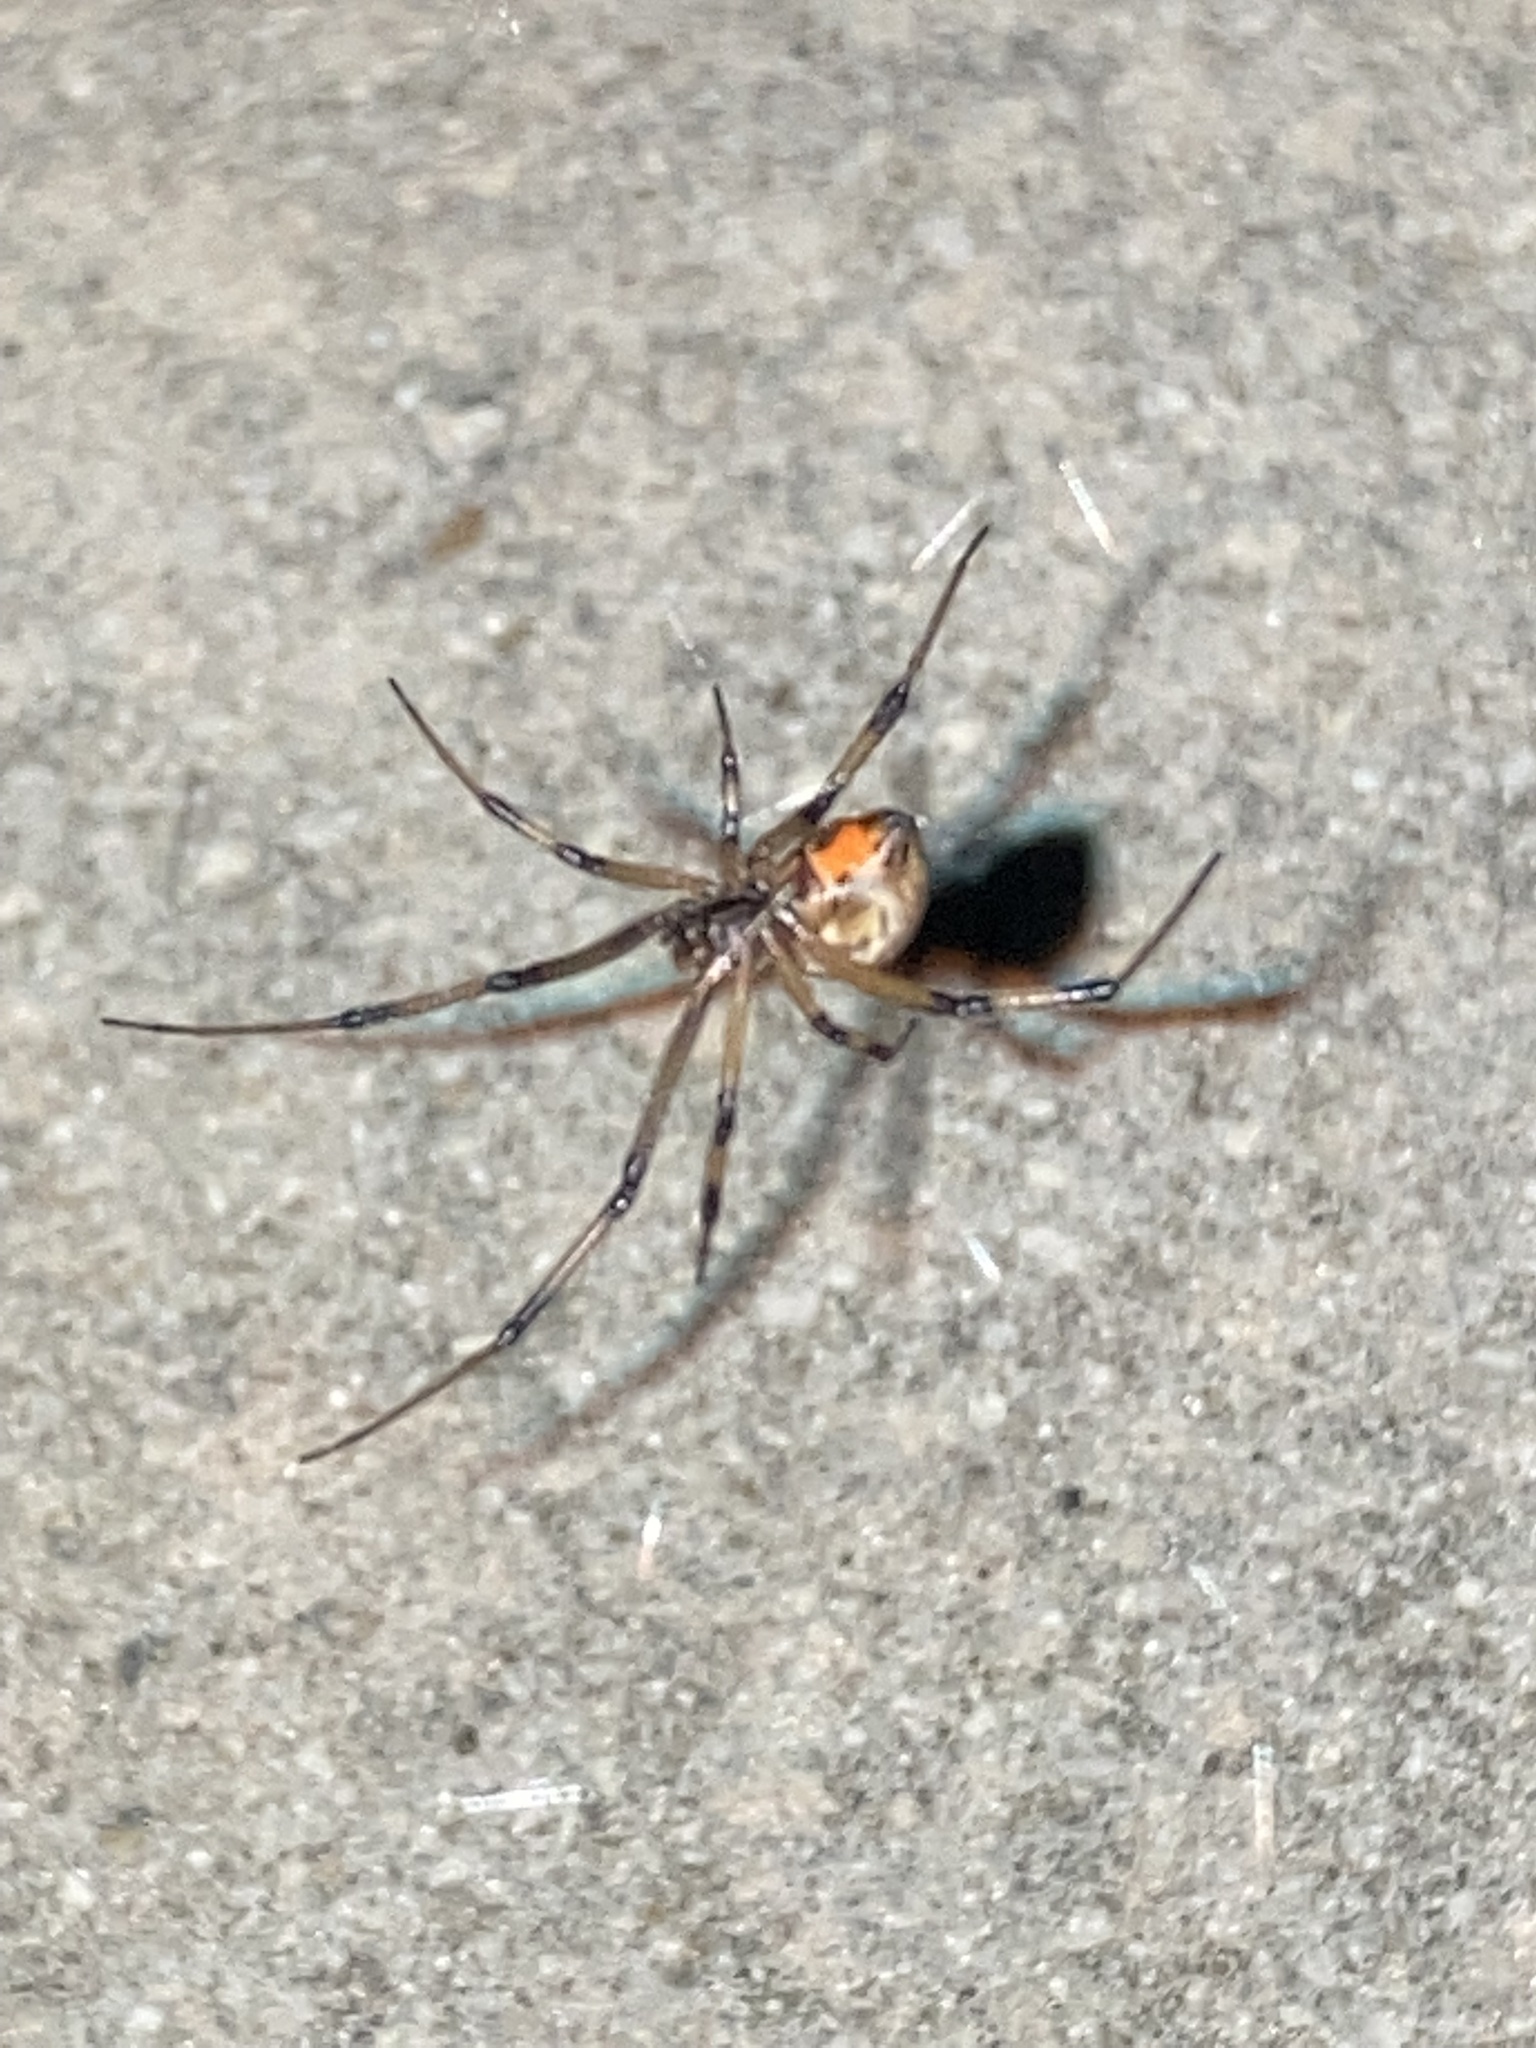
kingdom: Animalia
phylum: Arthropoda
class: Arachnida
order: Araneae
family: Theridiidae
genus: Latrodectus
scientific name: Latrodectus geometricus
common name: Brown widow spider
